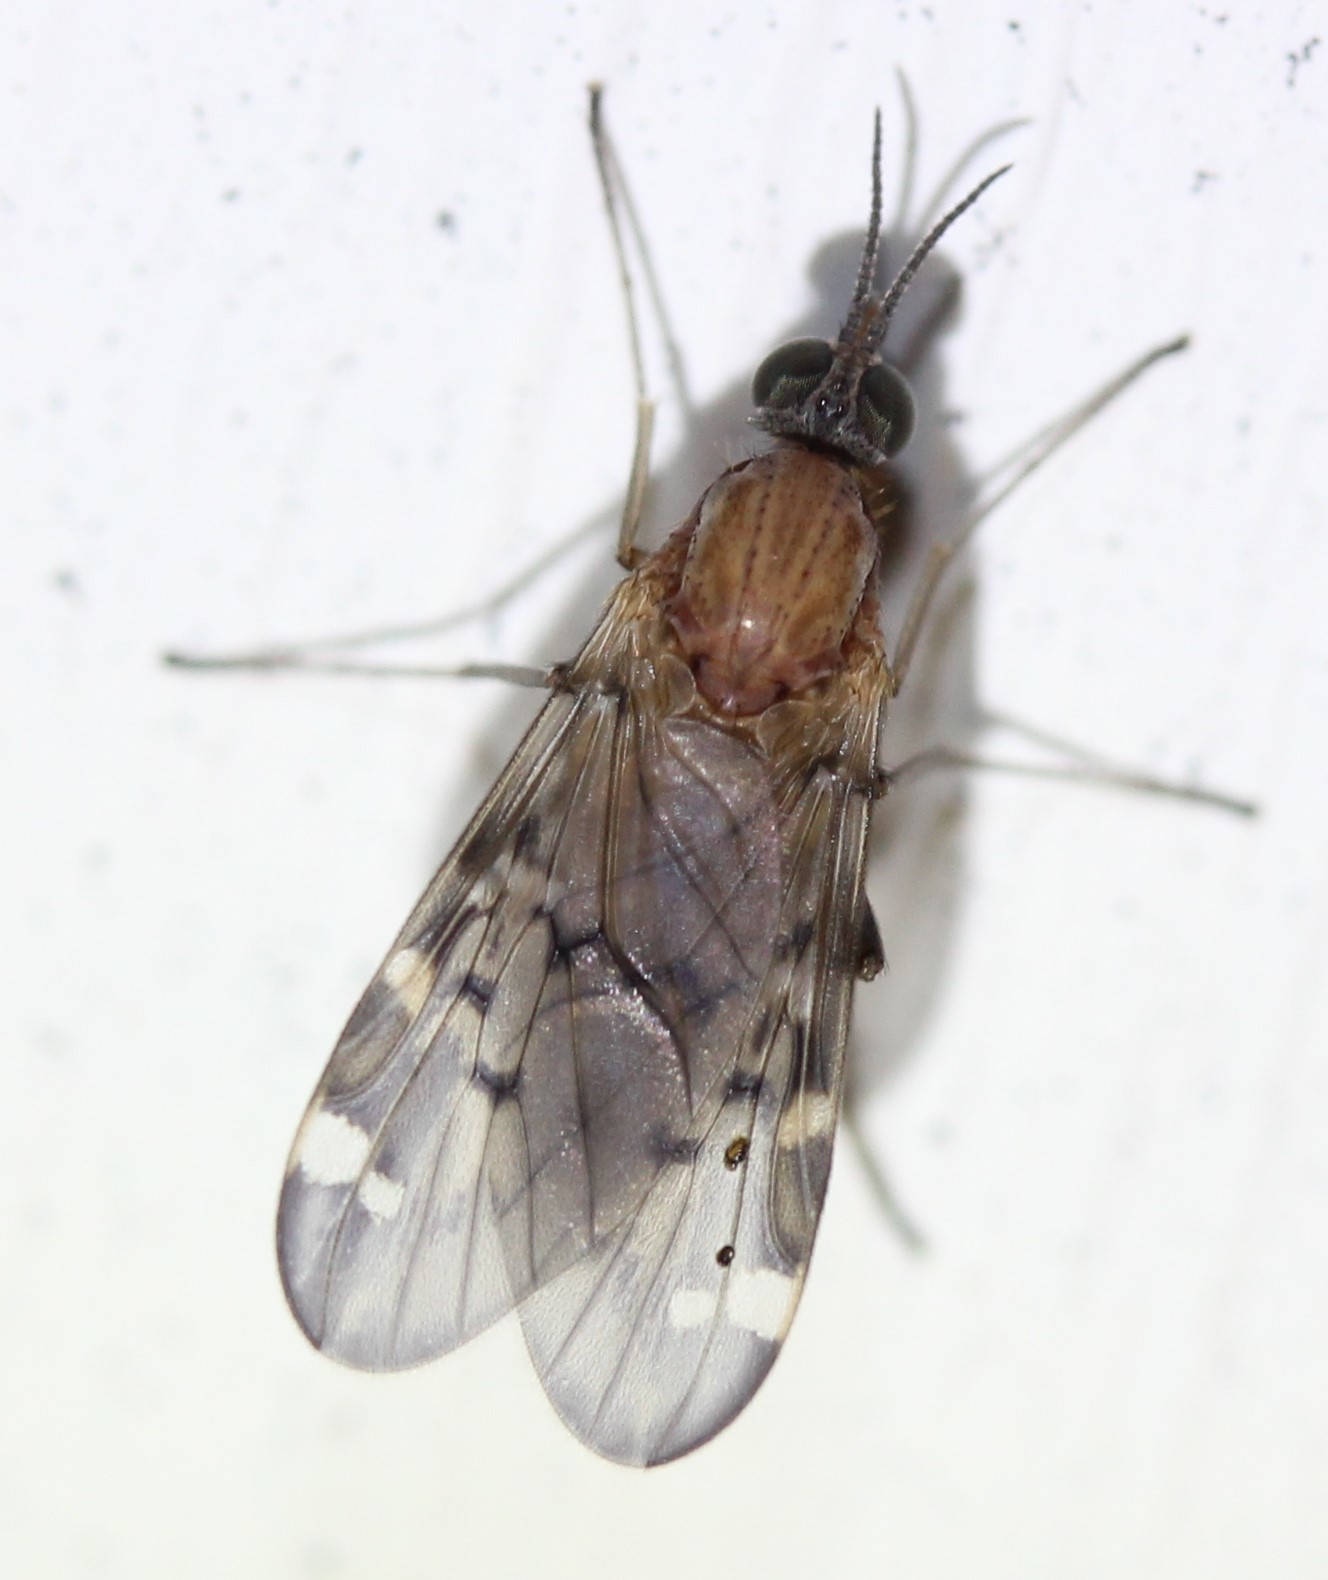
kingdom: Animalia
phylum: Arthropoda
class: Insecta
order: Diptera
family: Anisopodidae
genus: Sylvicola
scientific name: Sylvicola alternata
